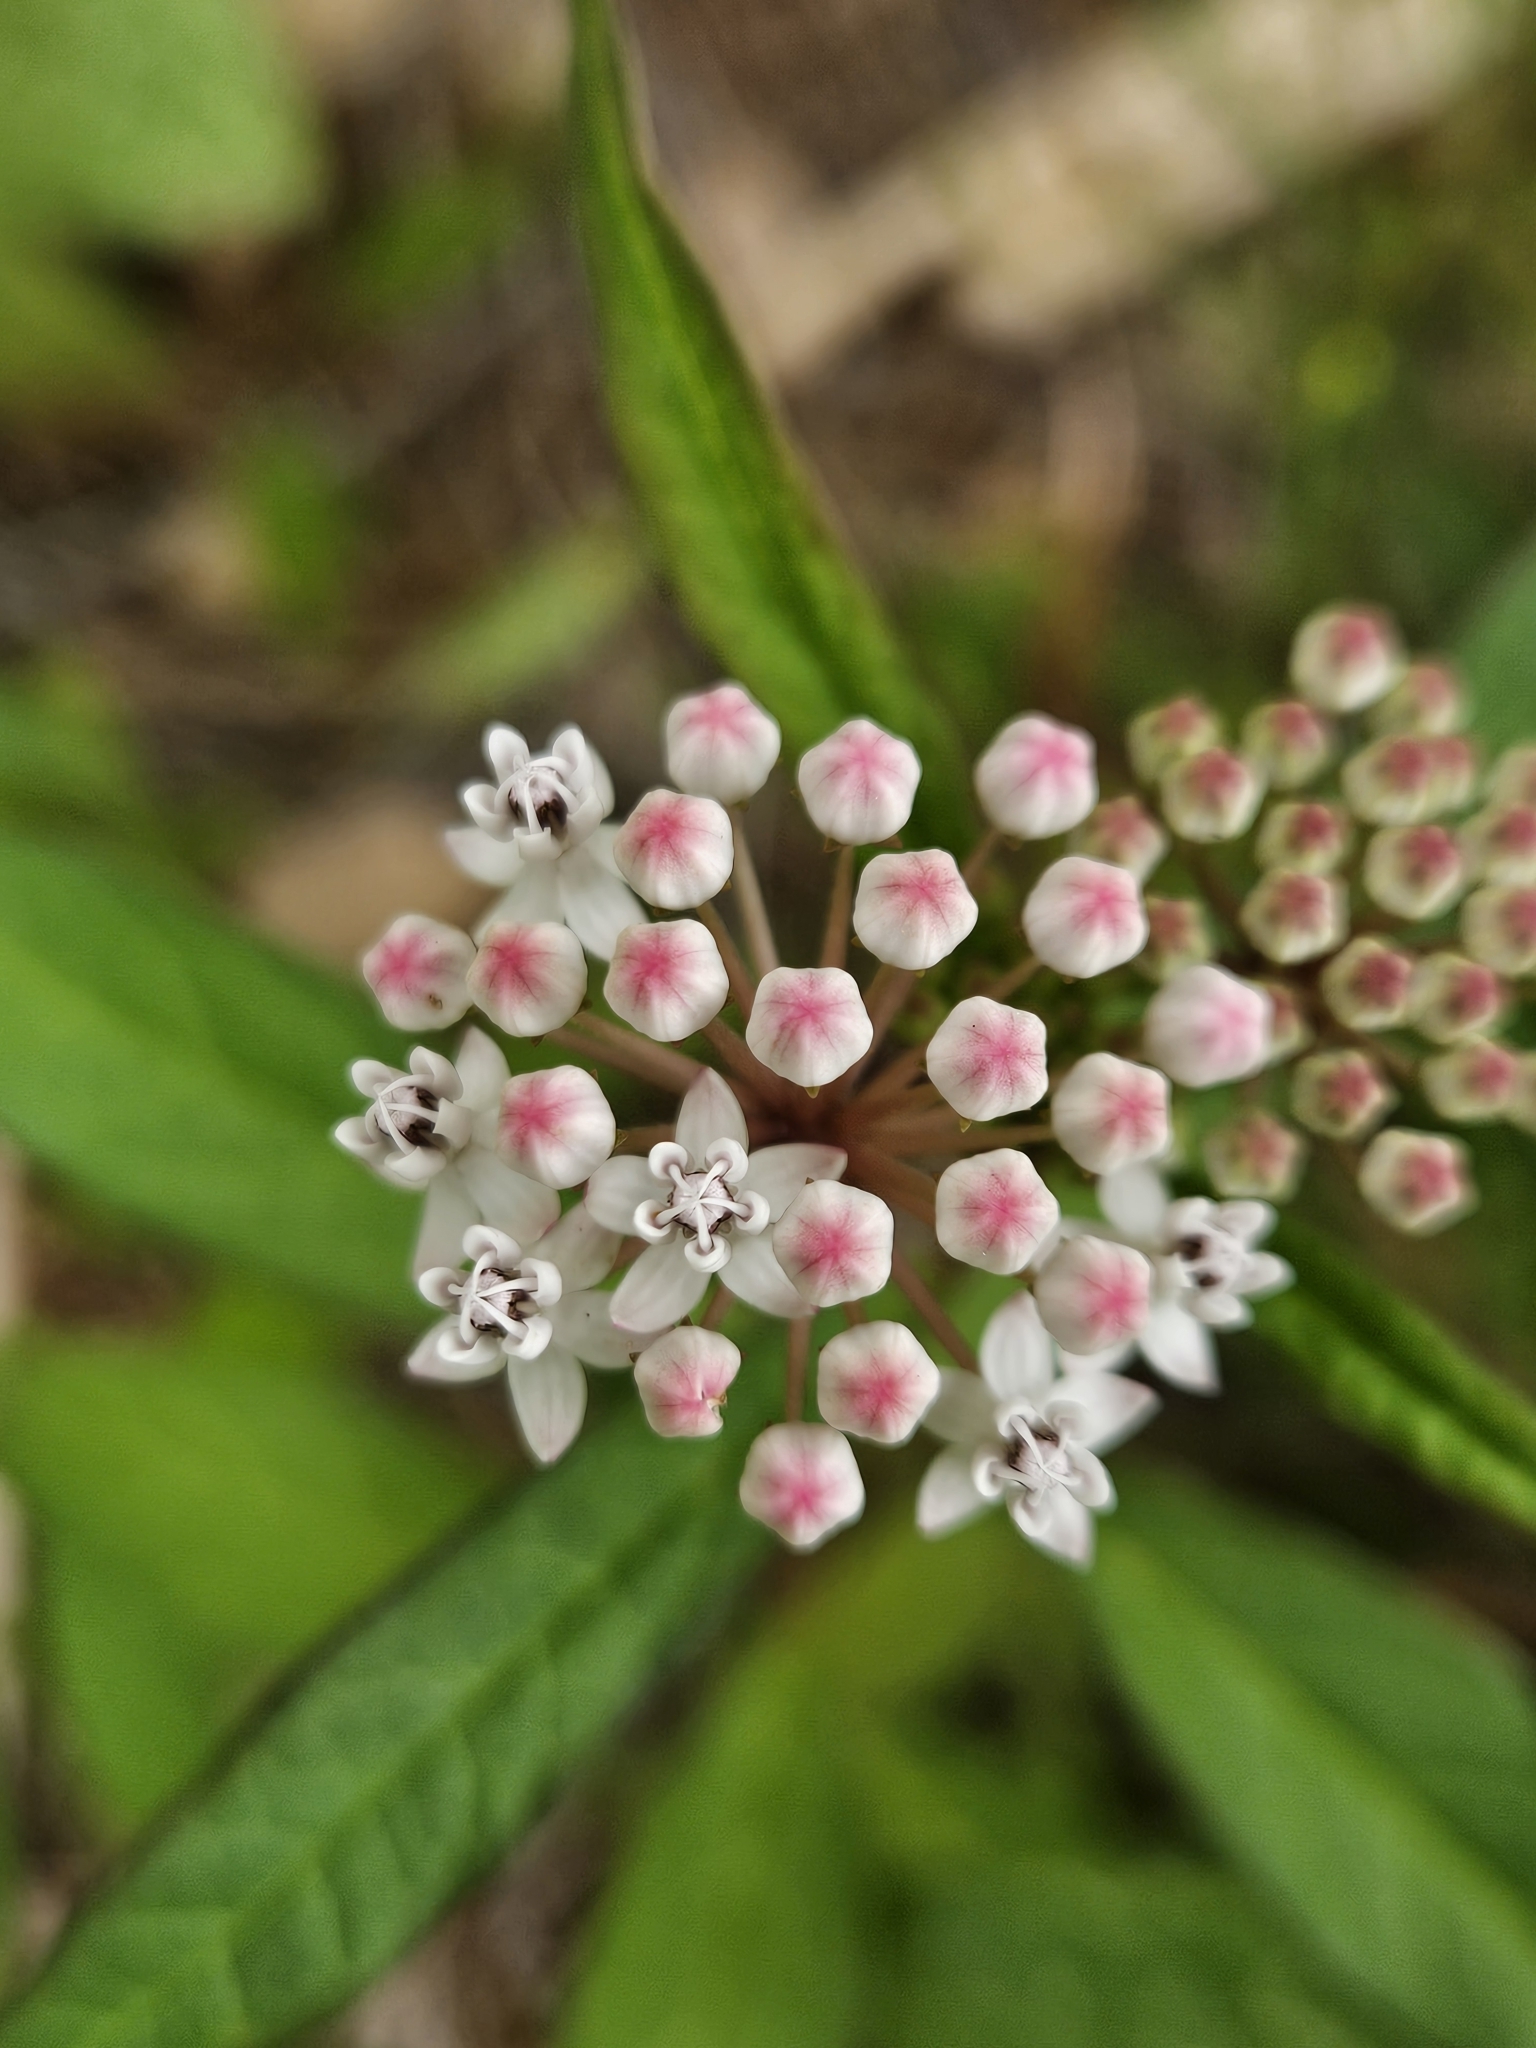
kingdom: Plantae
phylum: Tracheophyta
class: Magnoliopsida
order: Gentianales
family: Apocynaceae
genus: Asclepias
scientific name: Asclepias perennis
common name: Smooth-seed milkweed
